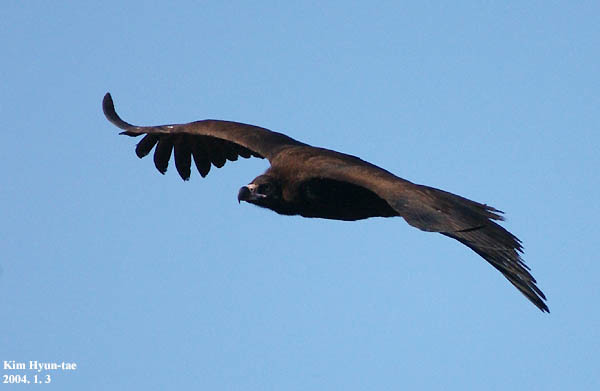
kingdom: Animalia
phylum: Chordata
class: Aves
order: Accipitriformes
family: Accipitridae
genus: Aegypius
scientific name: Aegypius monachus
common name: Cinereous vulture
